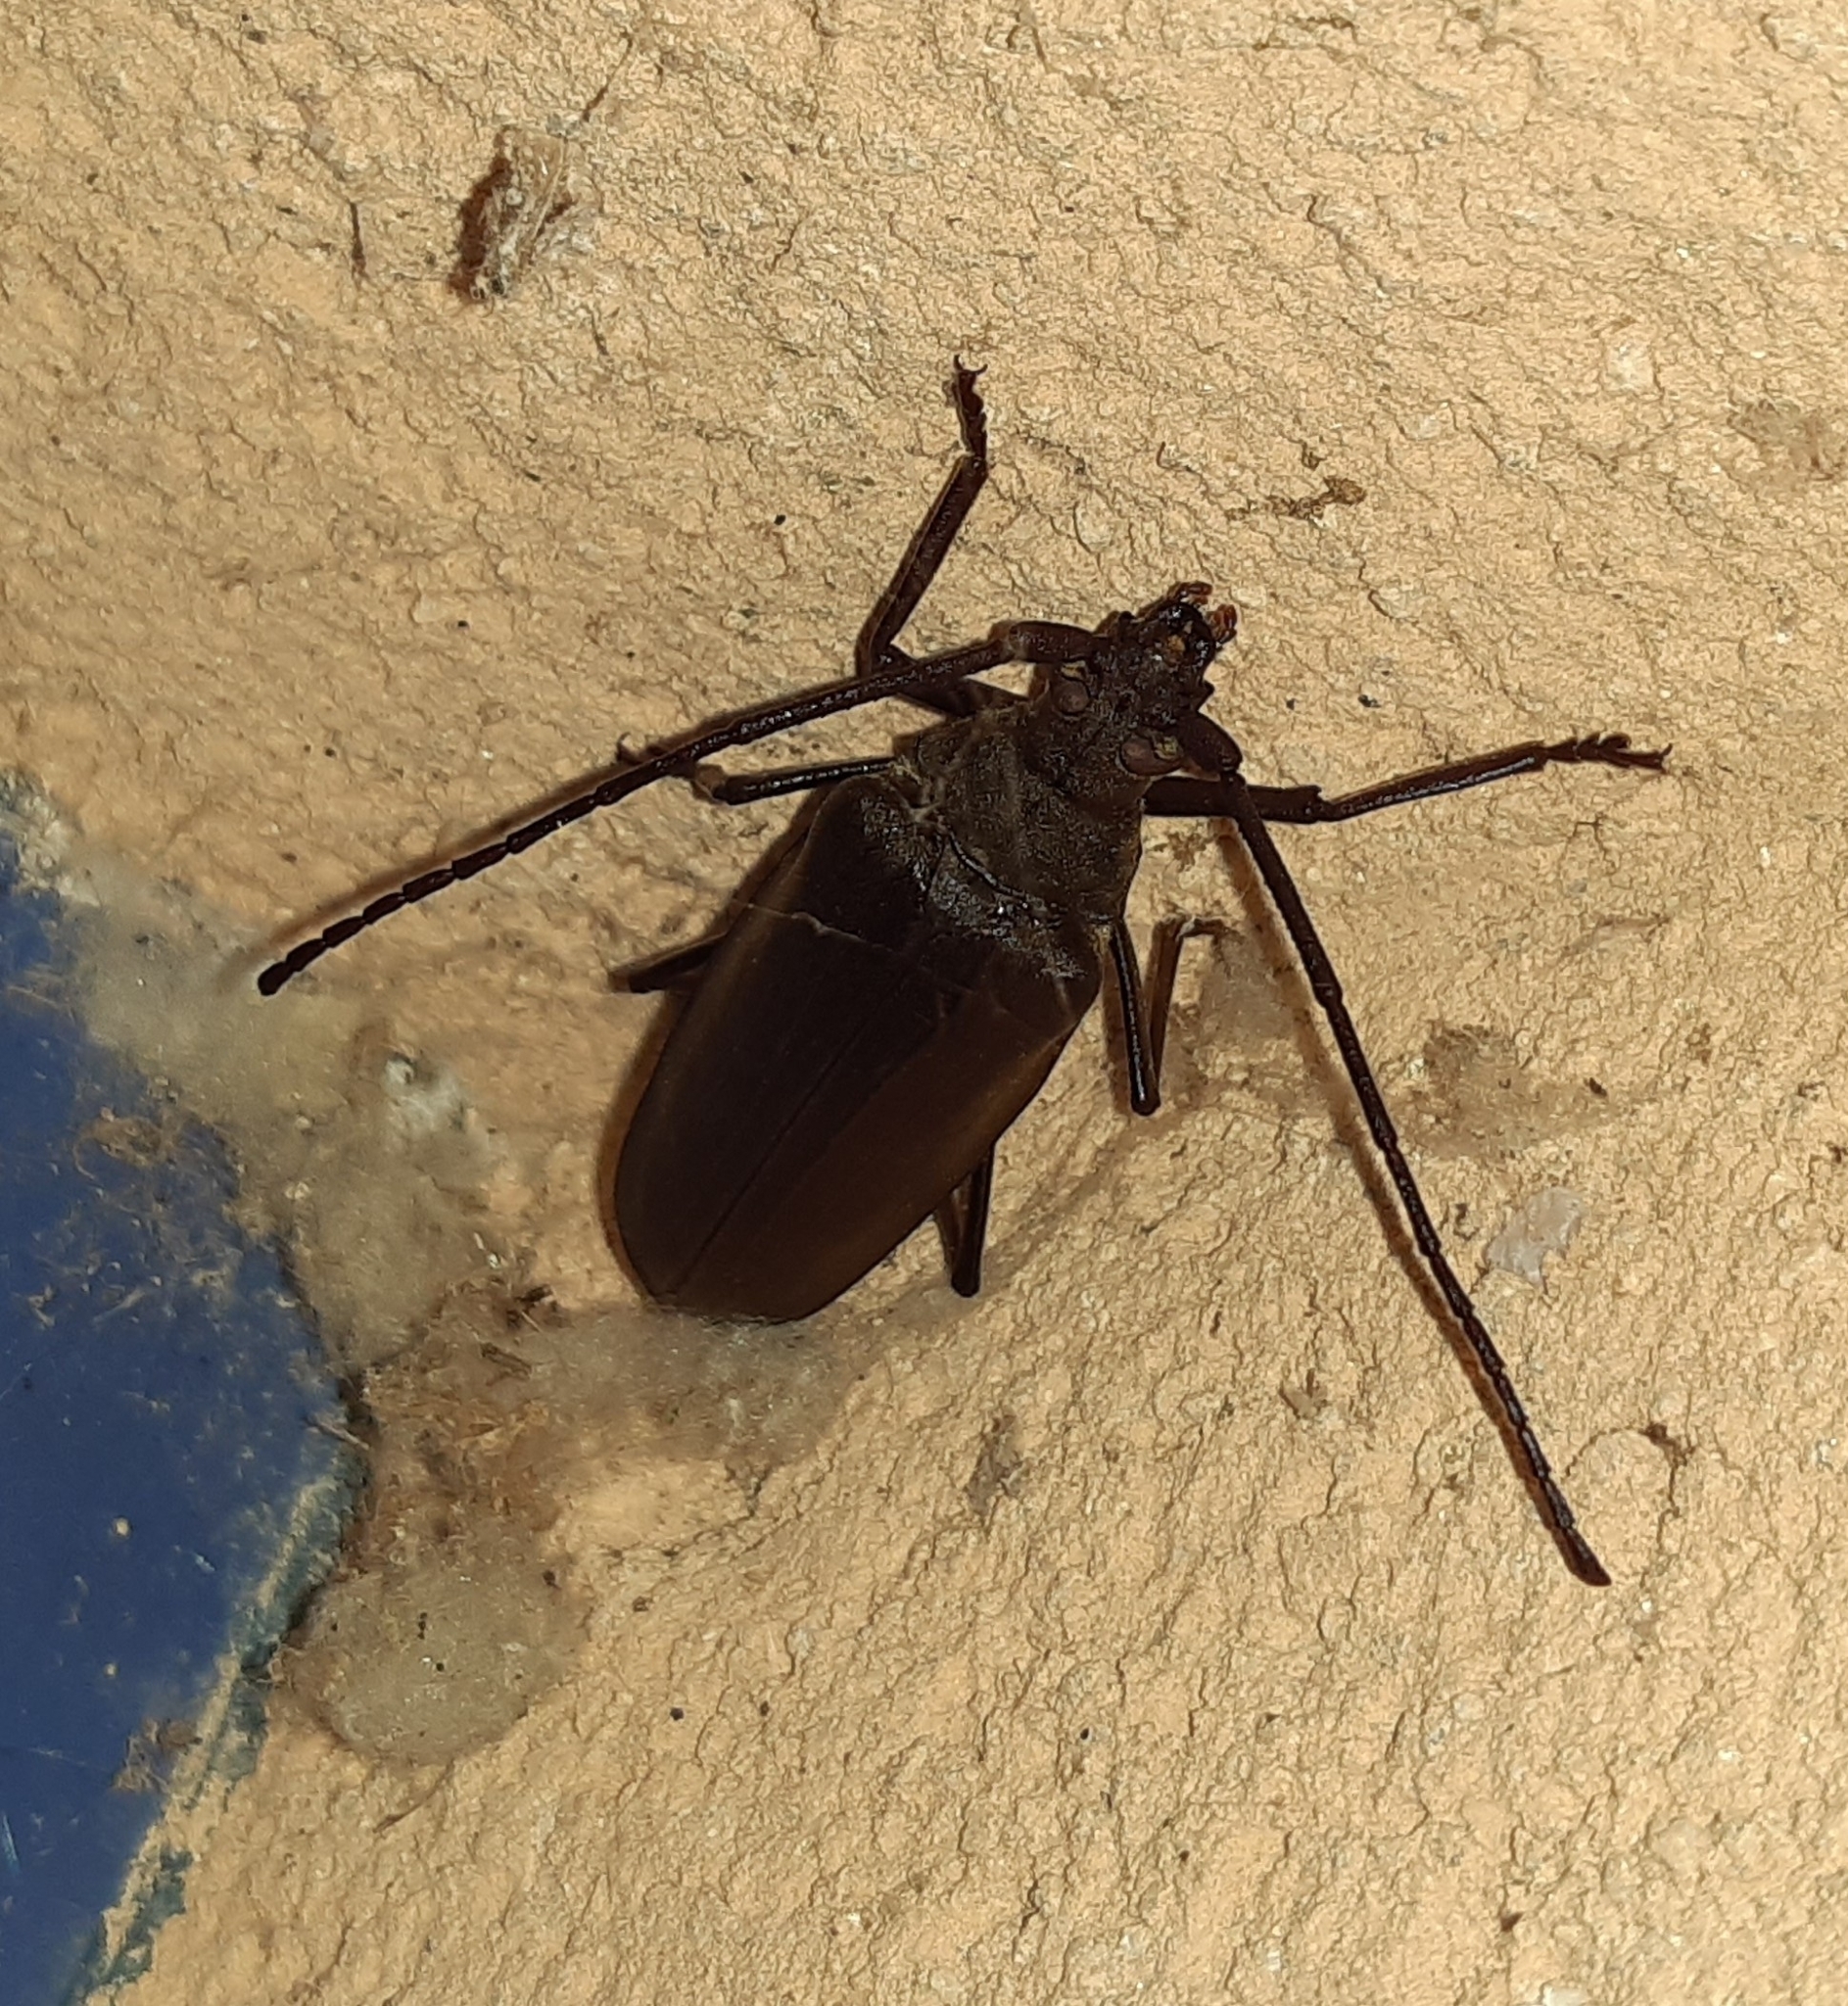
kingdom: Animalia
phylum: Arthropoda
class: Insecta
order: Coleoptera
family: Cerambycidae
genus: Aegosoma
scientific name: Aegosoma scabricorne
